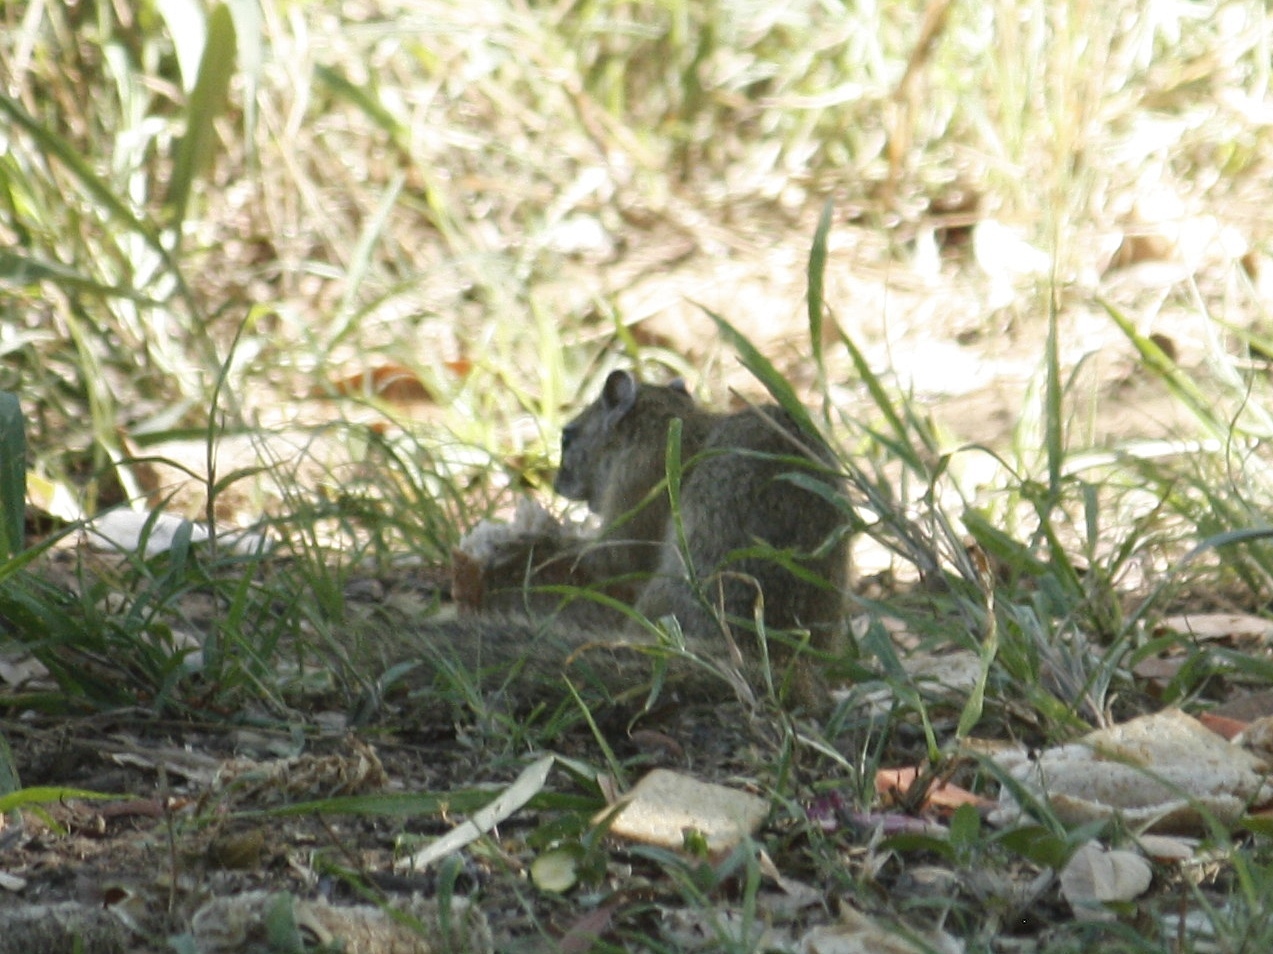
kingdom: Animalia
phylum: Chordata
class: Mammalia
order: Rodentia
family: Sciuridae
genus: Paraxerus
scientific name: Paraxerus cepapi
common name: Smith's bush squirrel
